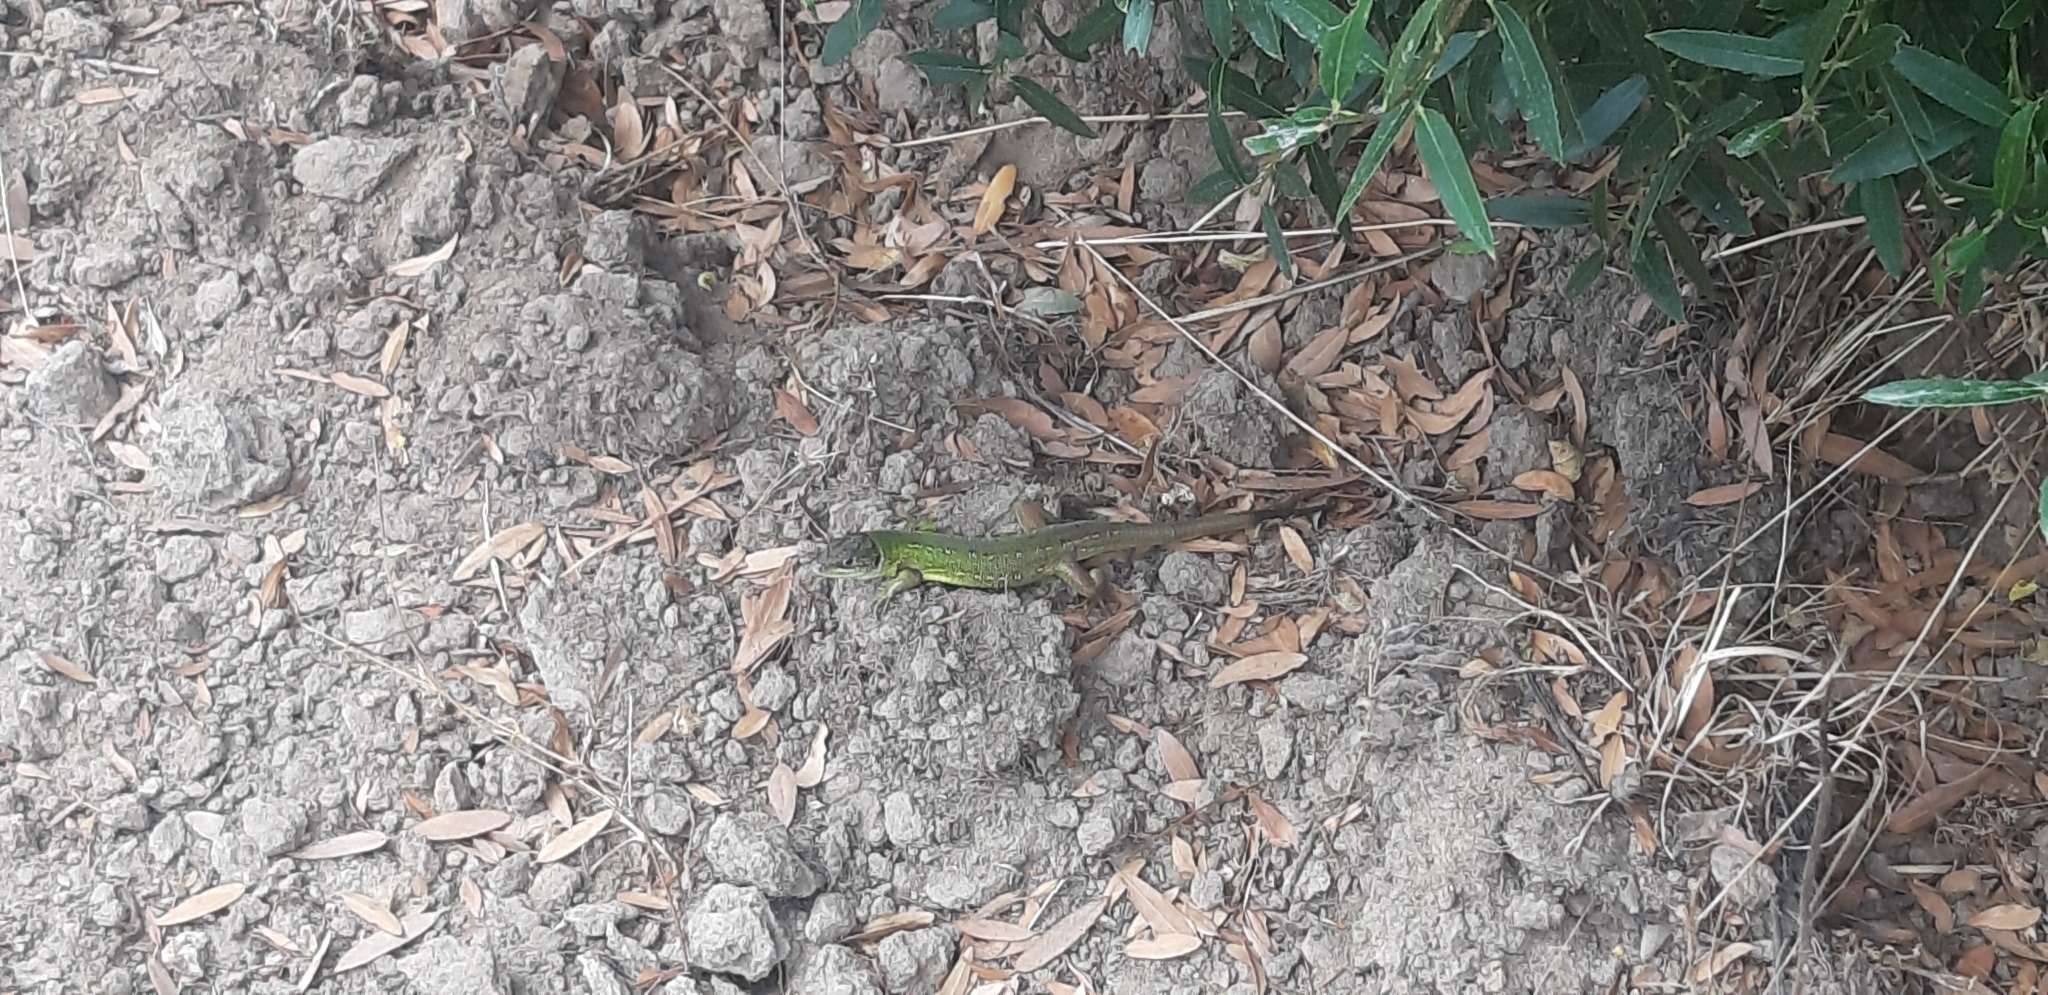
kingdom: Animalia
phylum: Chordata
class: Squamata
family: Lacertidae
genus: Lacerta
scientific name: Lacerta bilineata
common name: Western green lizard
